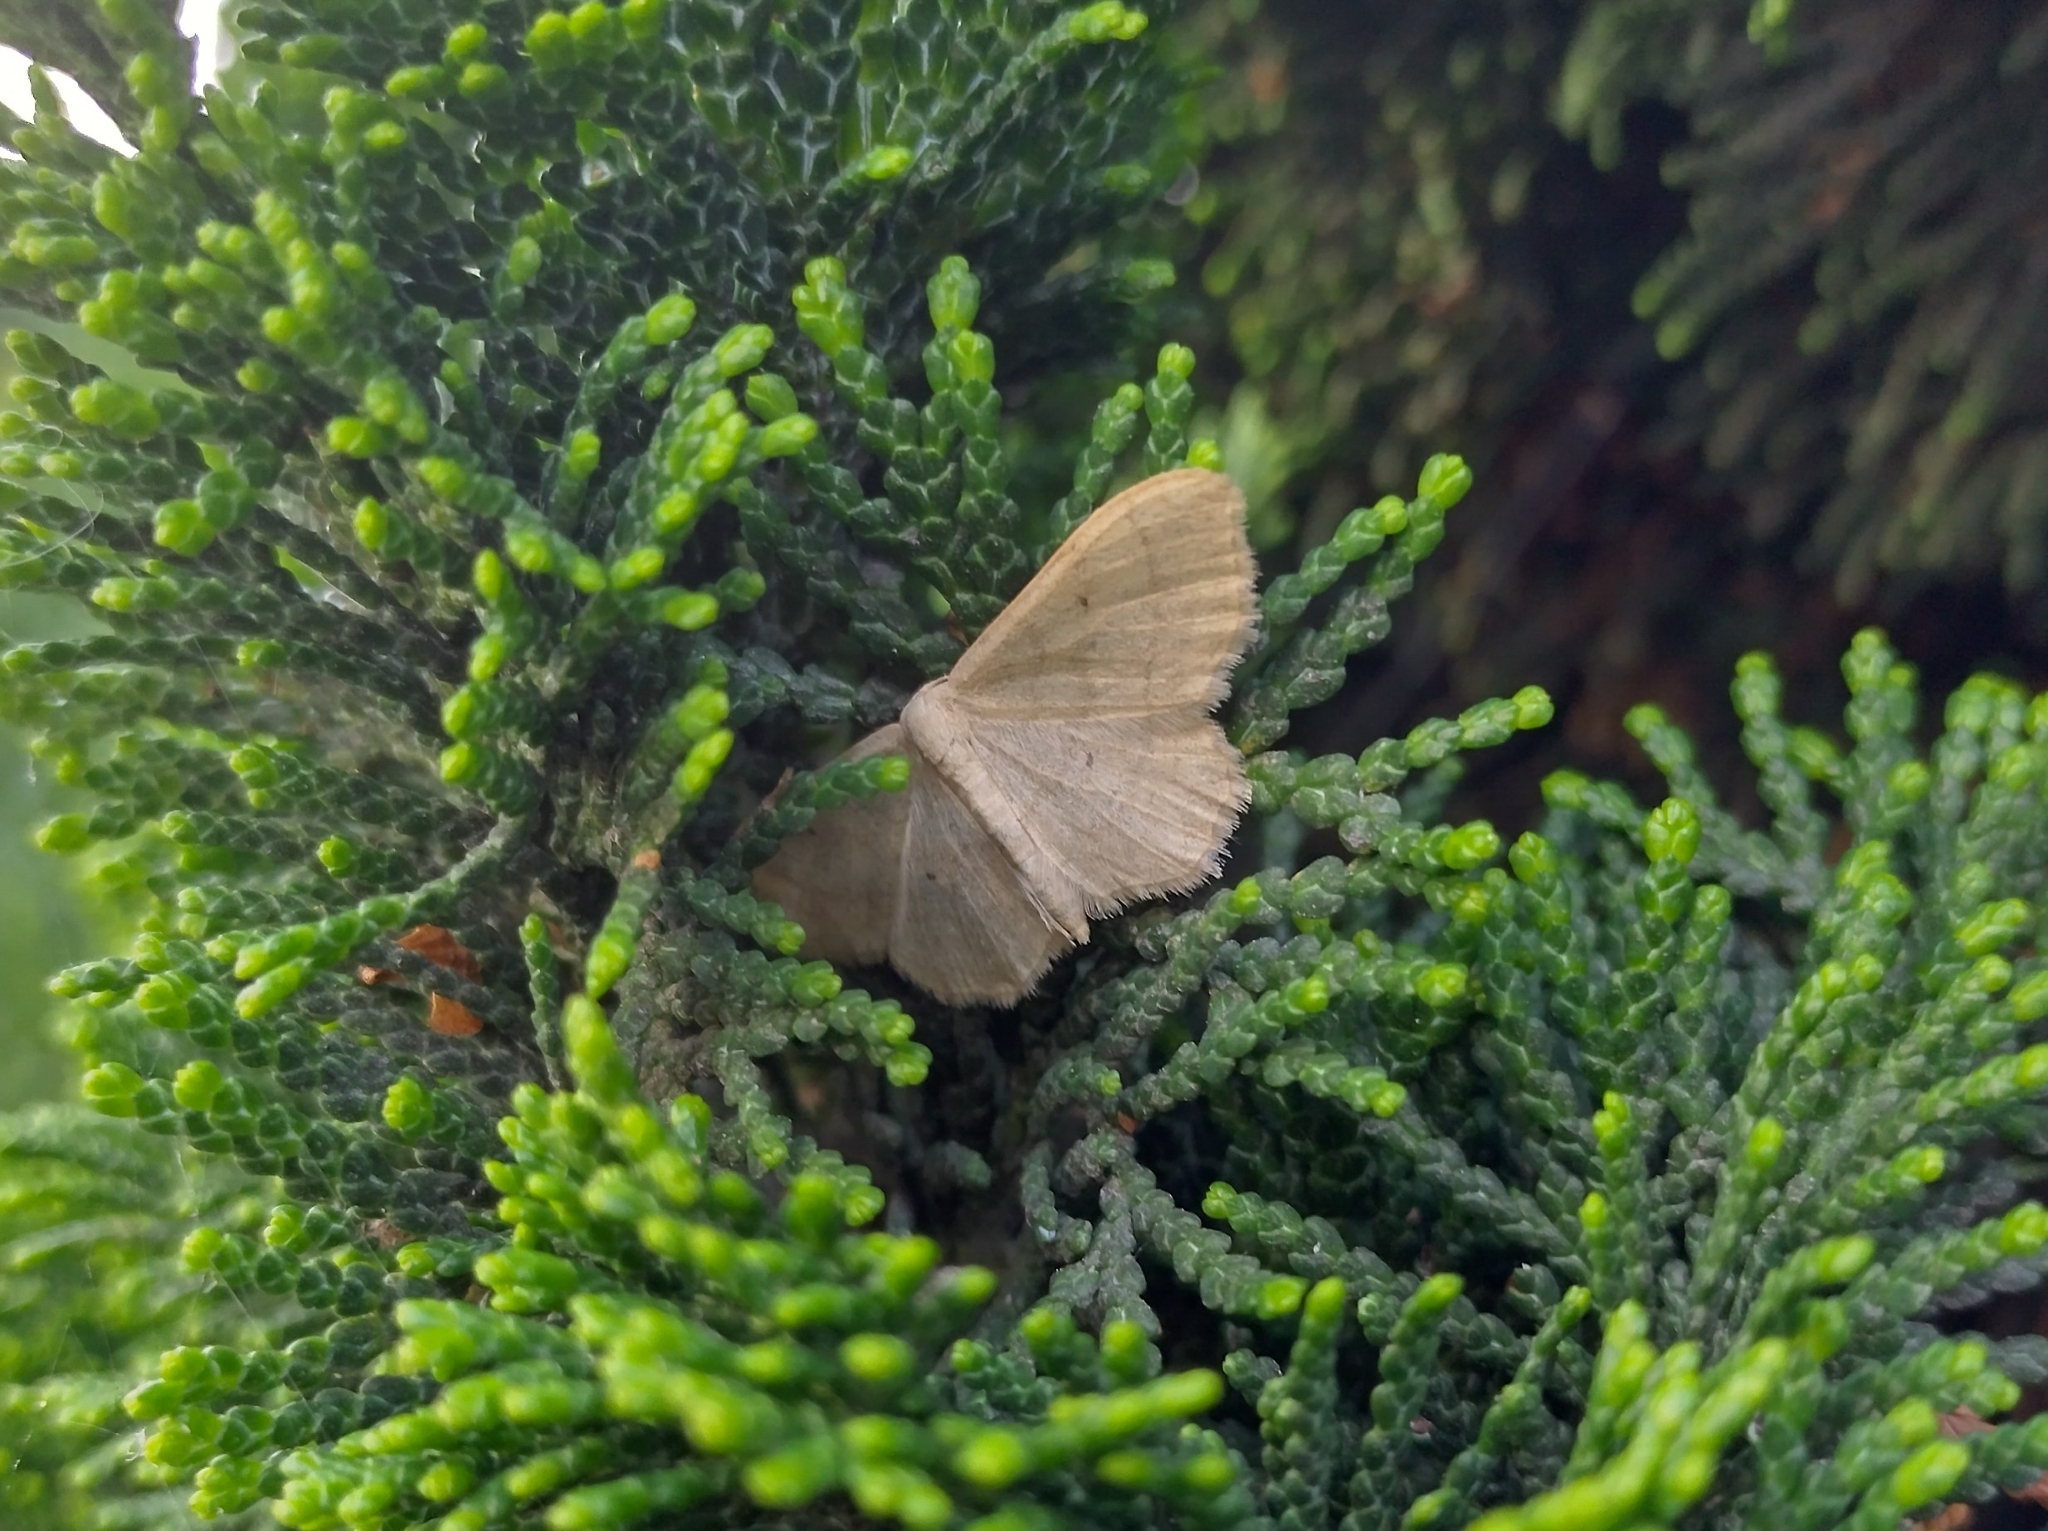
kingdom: Animalia
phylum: Arthropoda
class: Insecta
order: Lepidoptera
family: Geometridae
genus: Idaea
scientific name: Idaea straminata
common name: Plain wave
